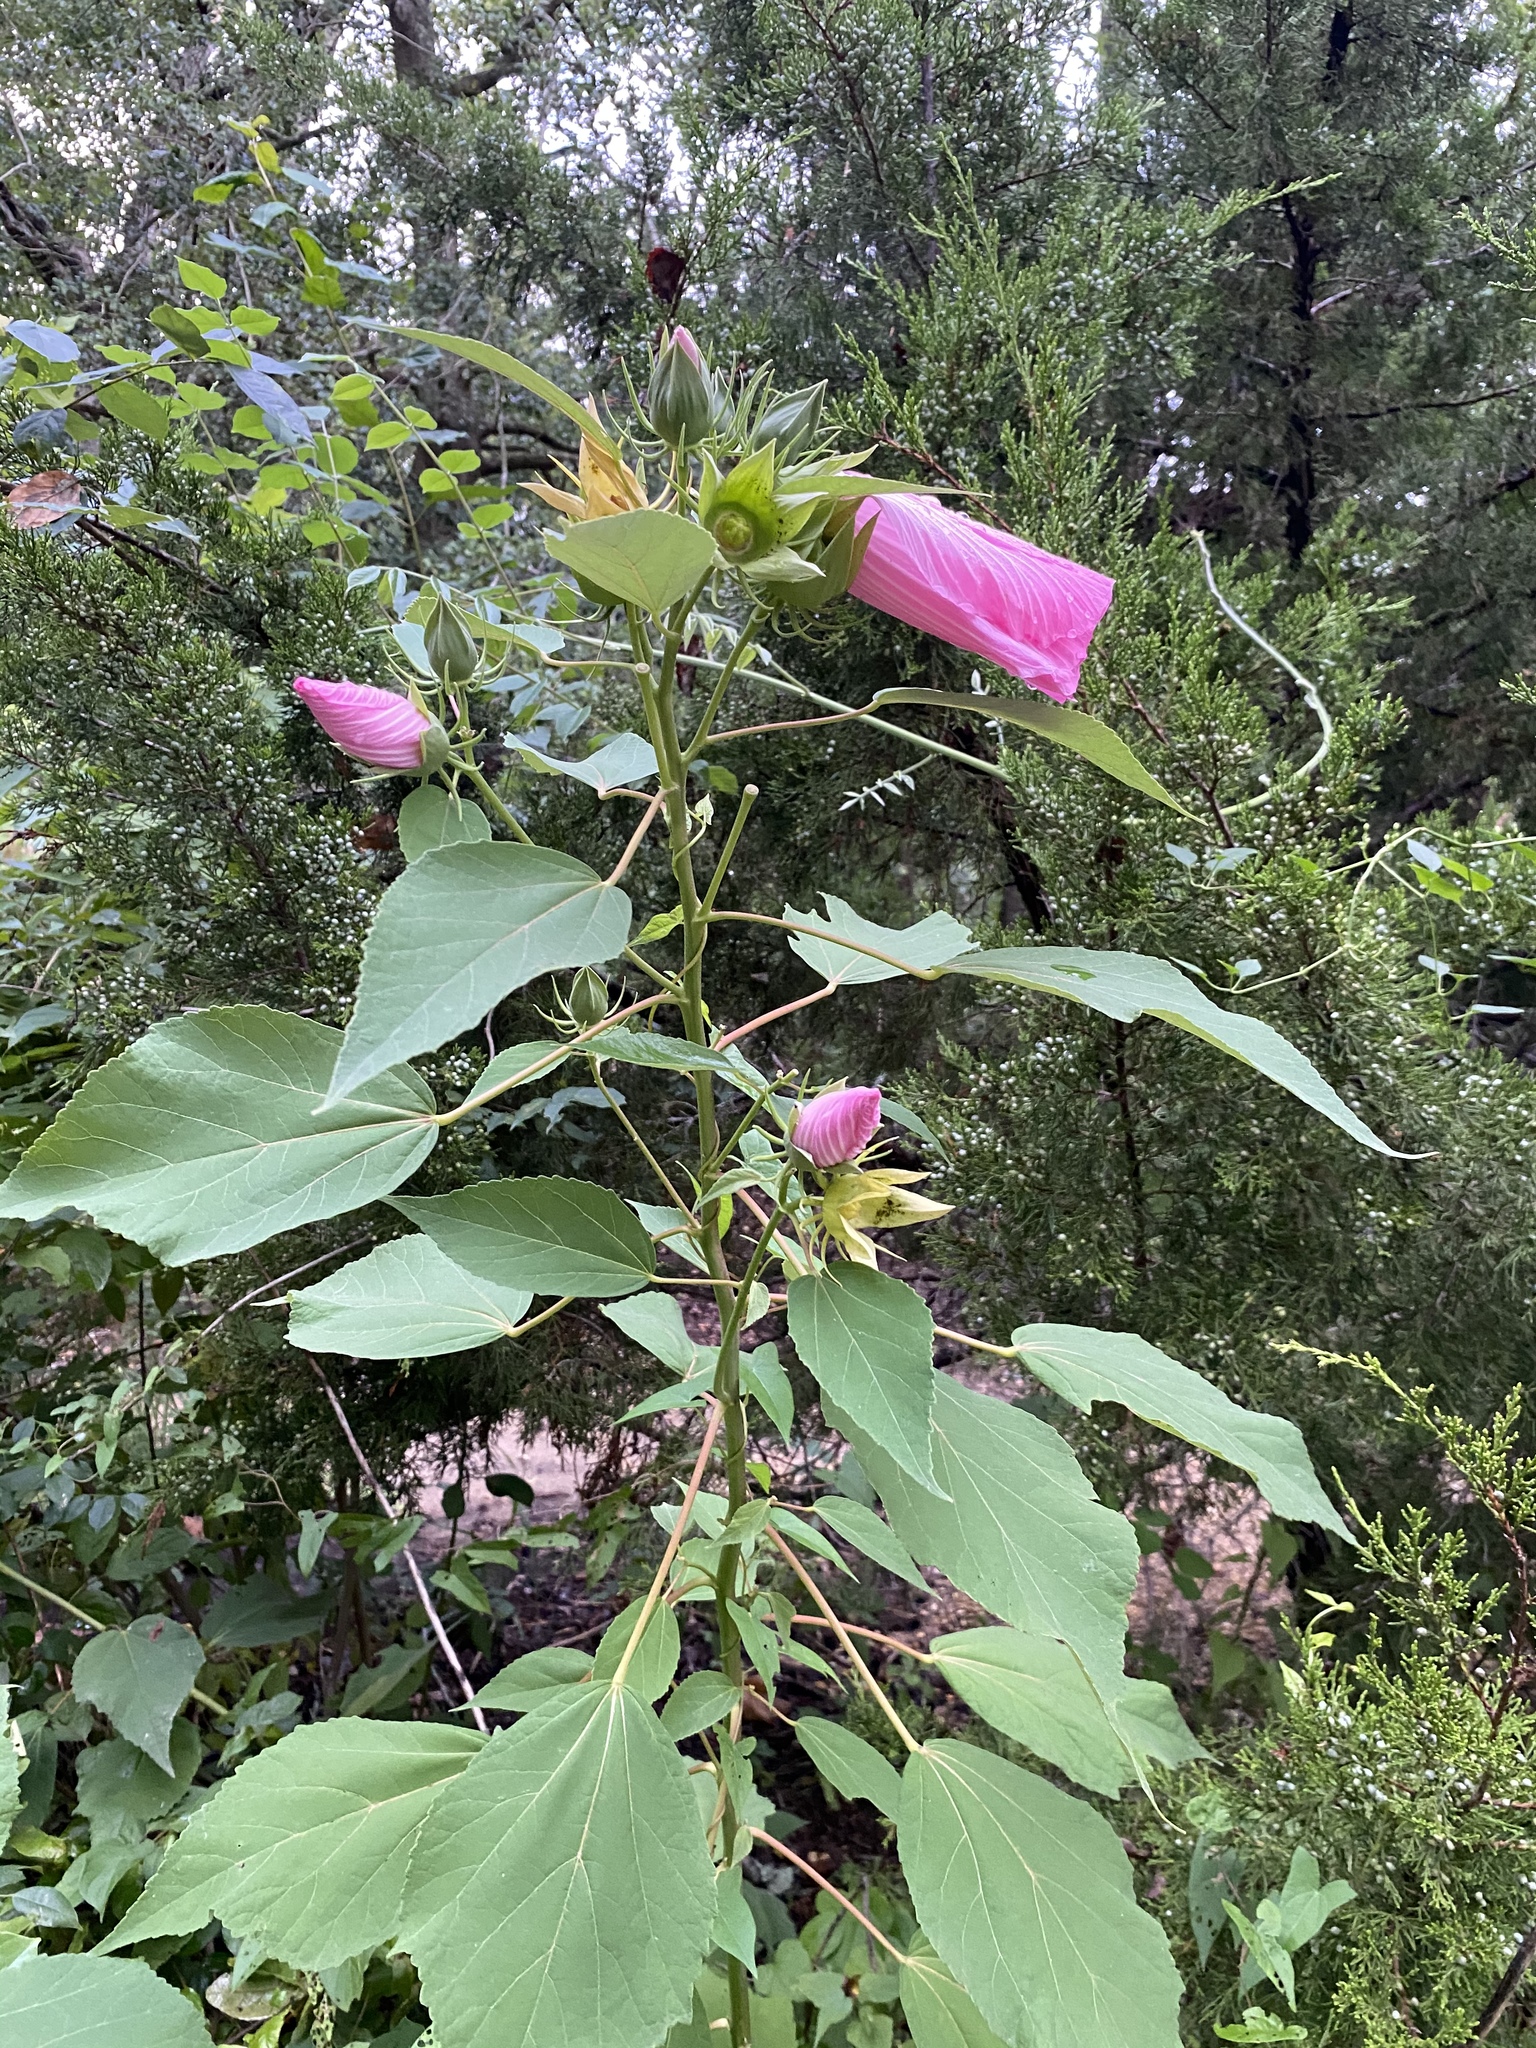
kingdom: Plantae
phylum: Tracheophyta
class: Magnoliopsida
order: Malvales
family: Malvaceae
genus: Hibiscus
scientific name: Hibiscus moscheutos
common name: Common rose-mallow
